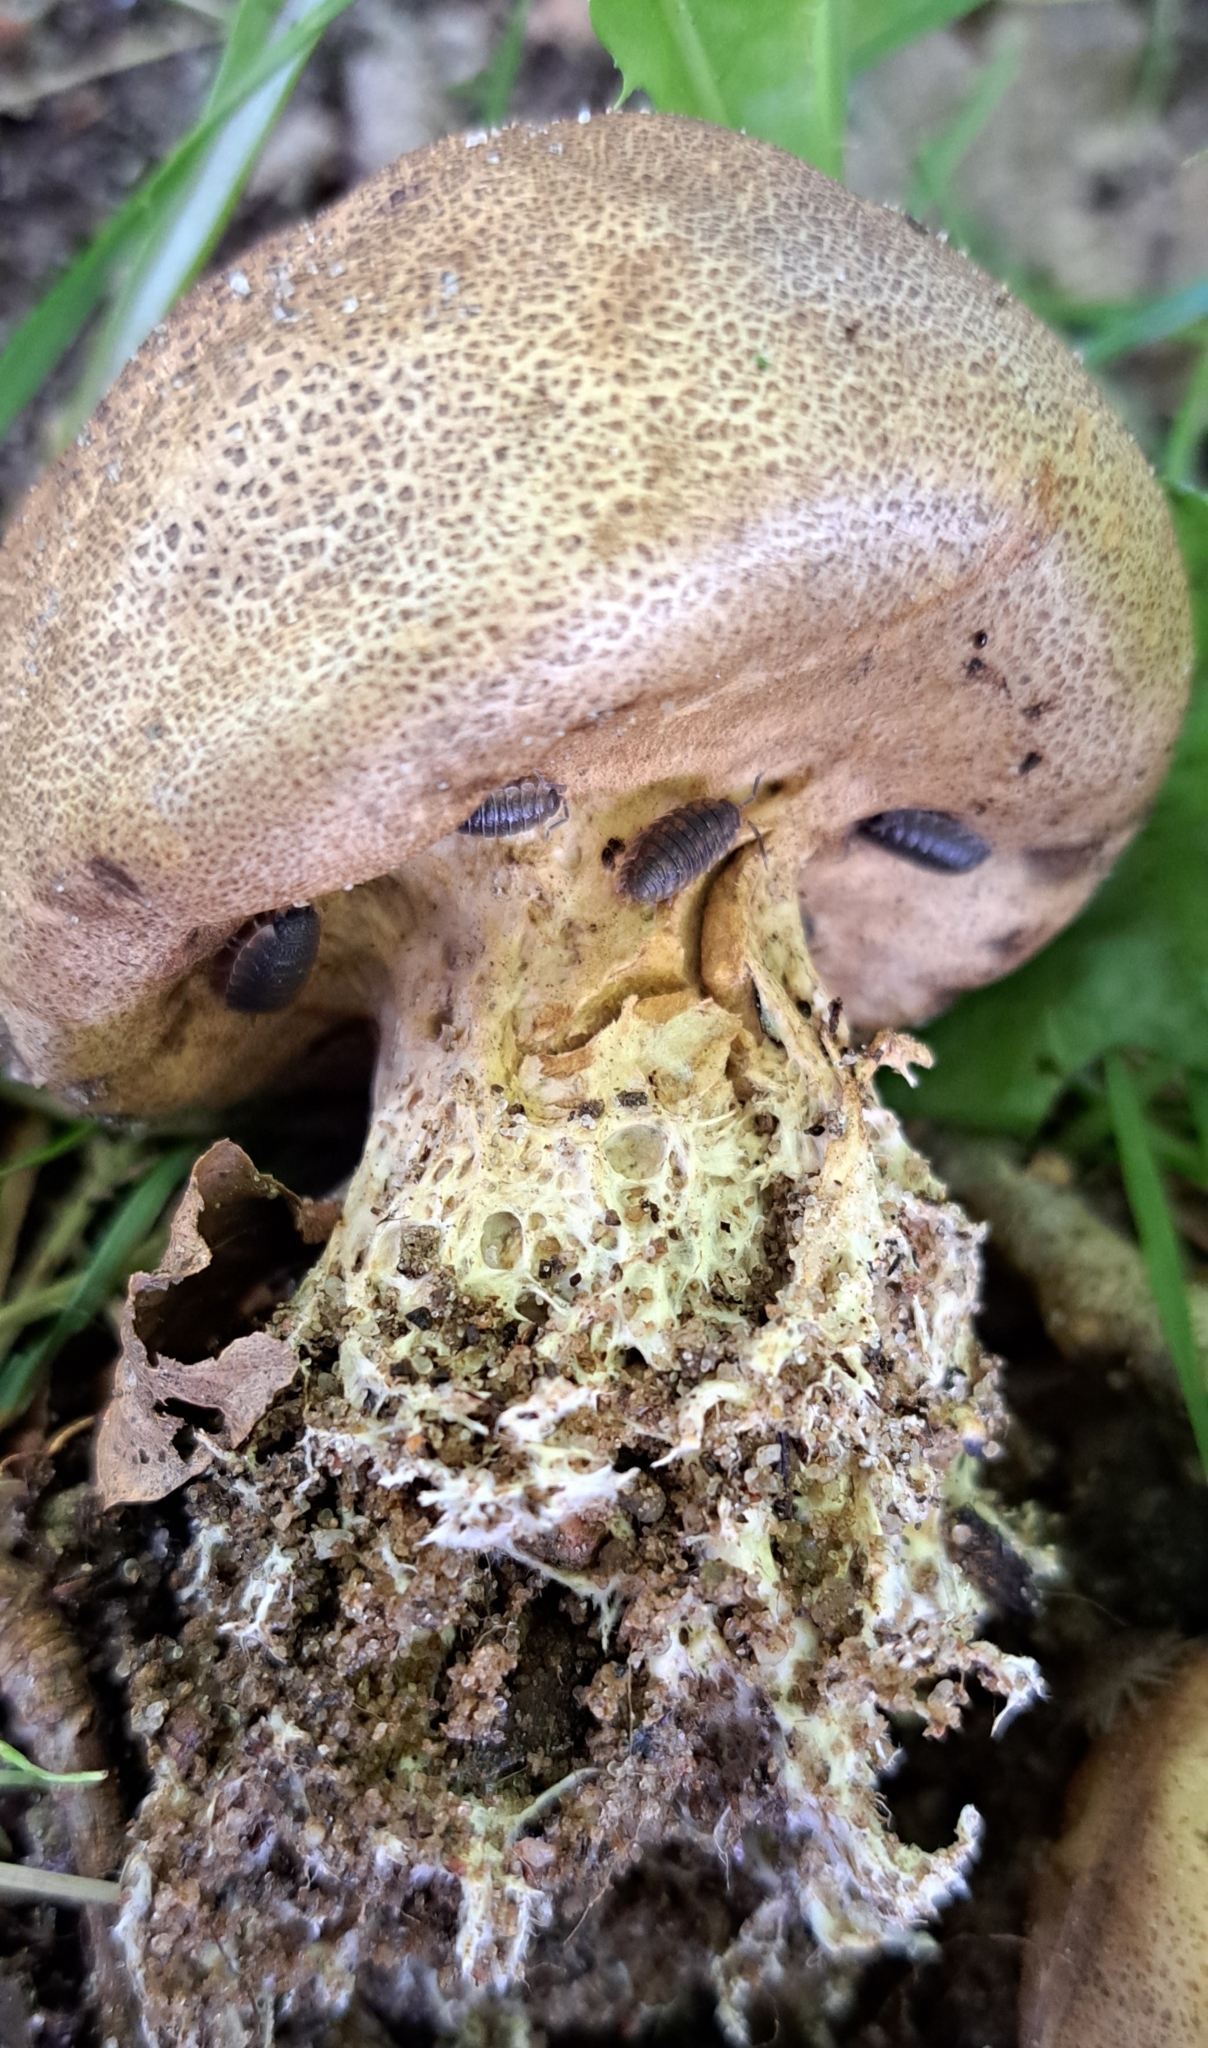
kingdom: Fungi
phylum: Basidiomycota
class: Agaricomycetes
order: Boletales
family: Sclerodermataceae
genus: Scleroderma
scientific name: Scleroderma verrucosum
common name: Scaly earthball
